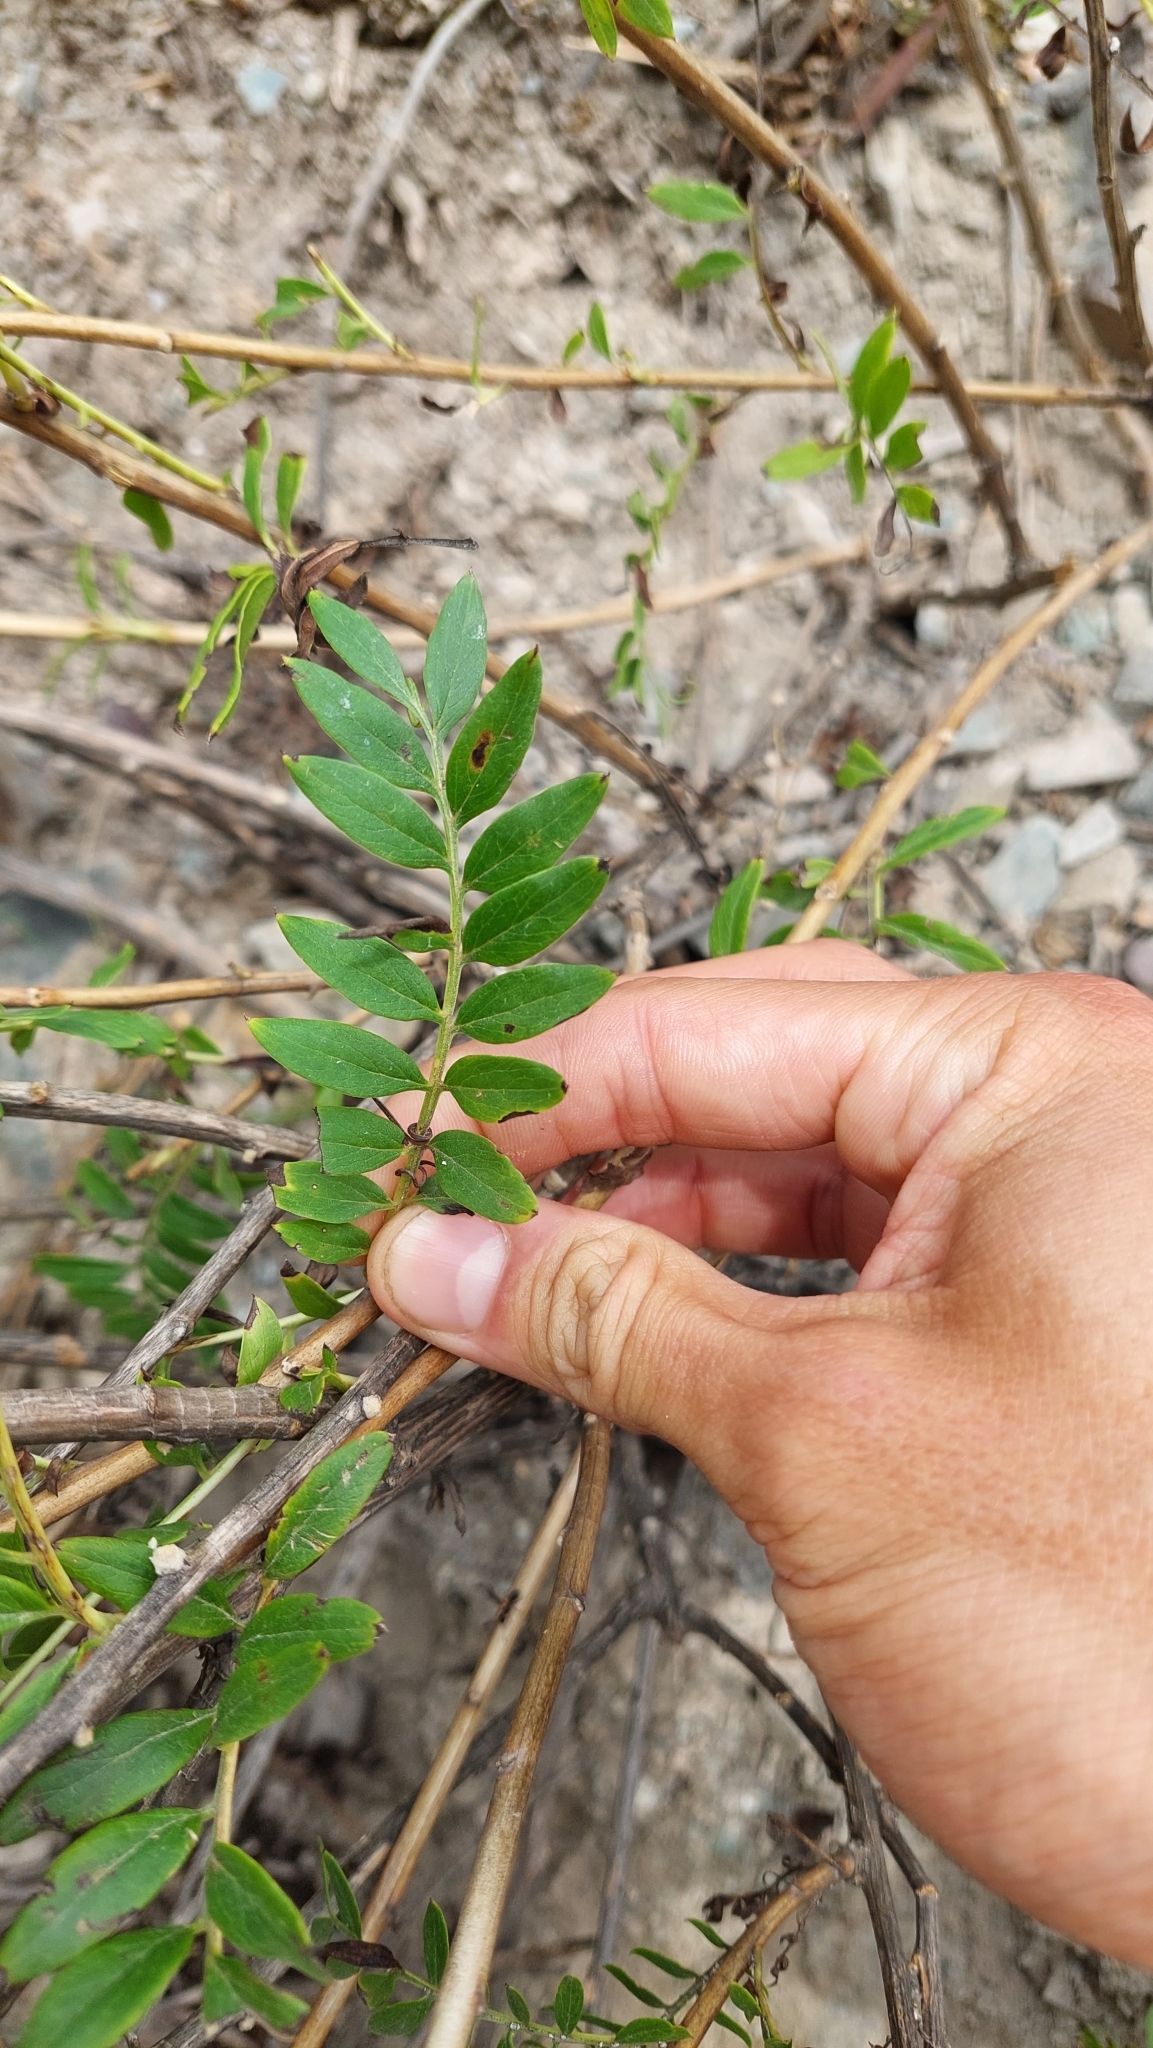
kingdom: Plantae
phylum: Tracheophyta
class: Magnoliopsida
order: Asterales
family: Asteraceae
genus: Mutisia
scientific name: Mutisia acuminata
